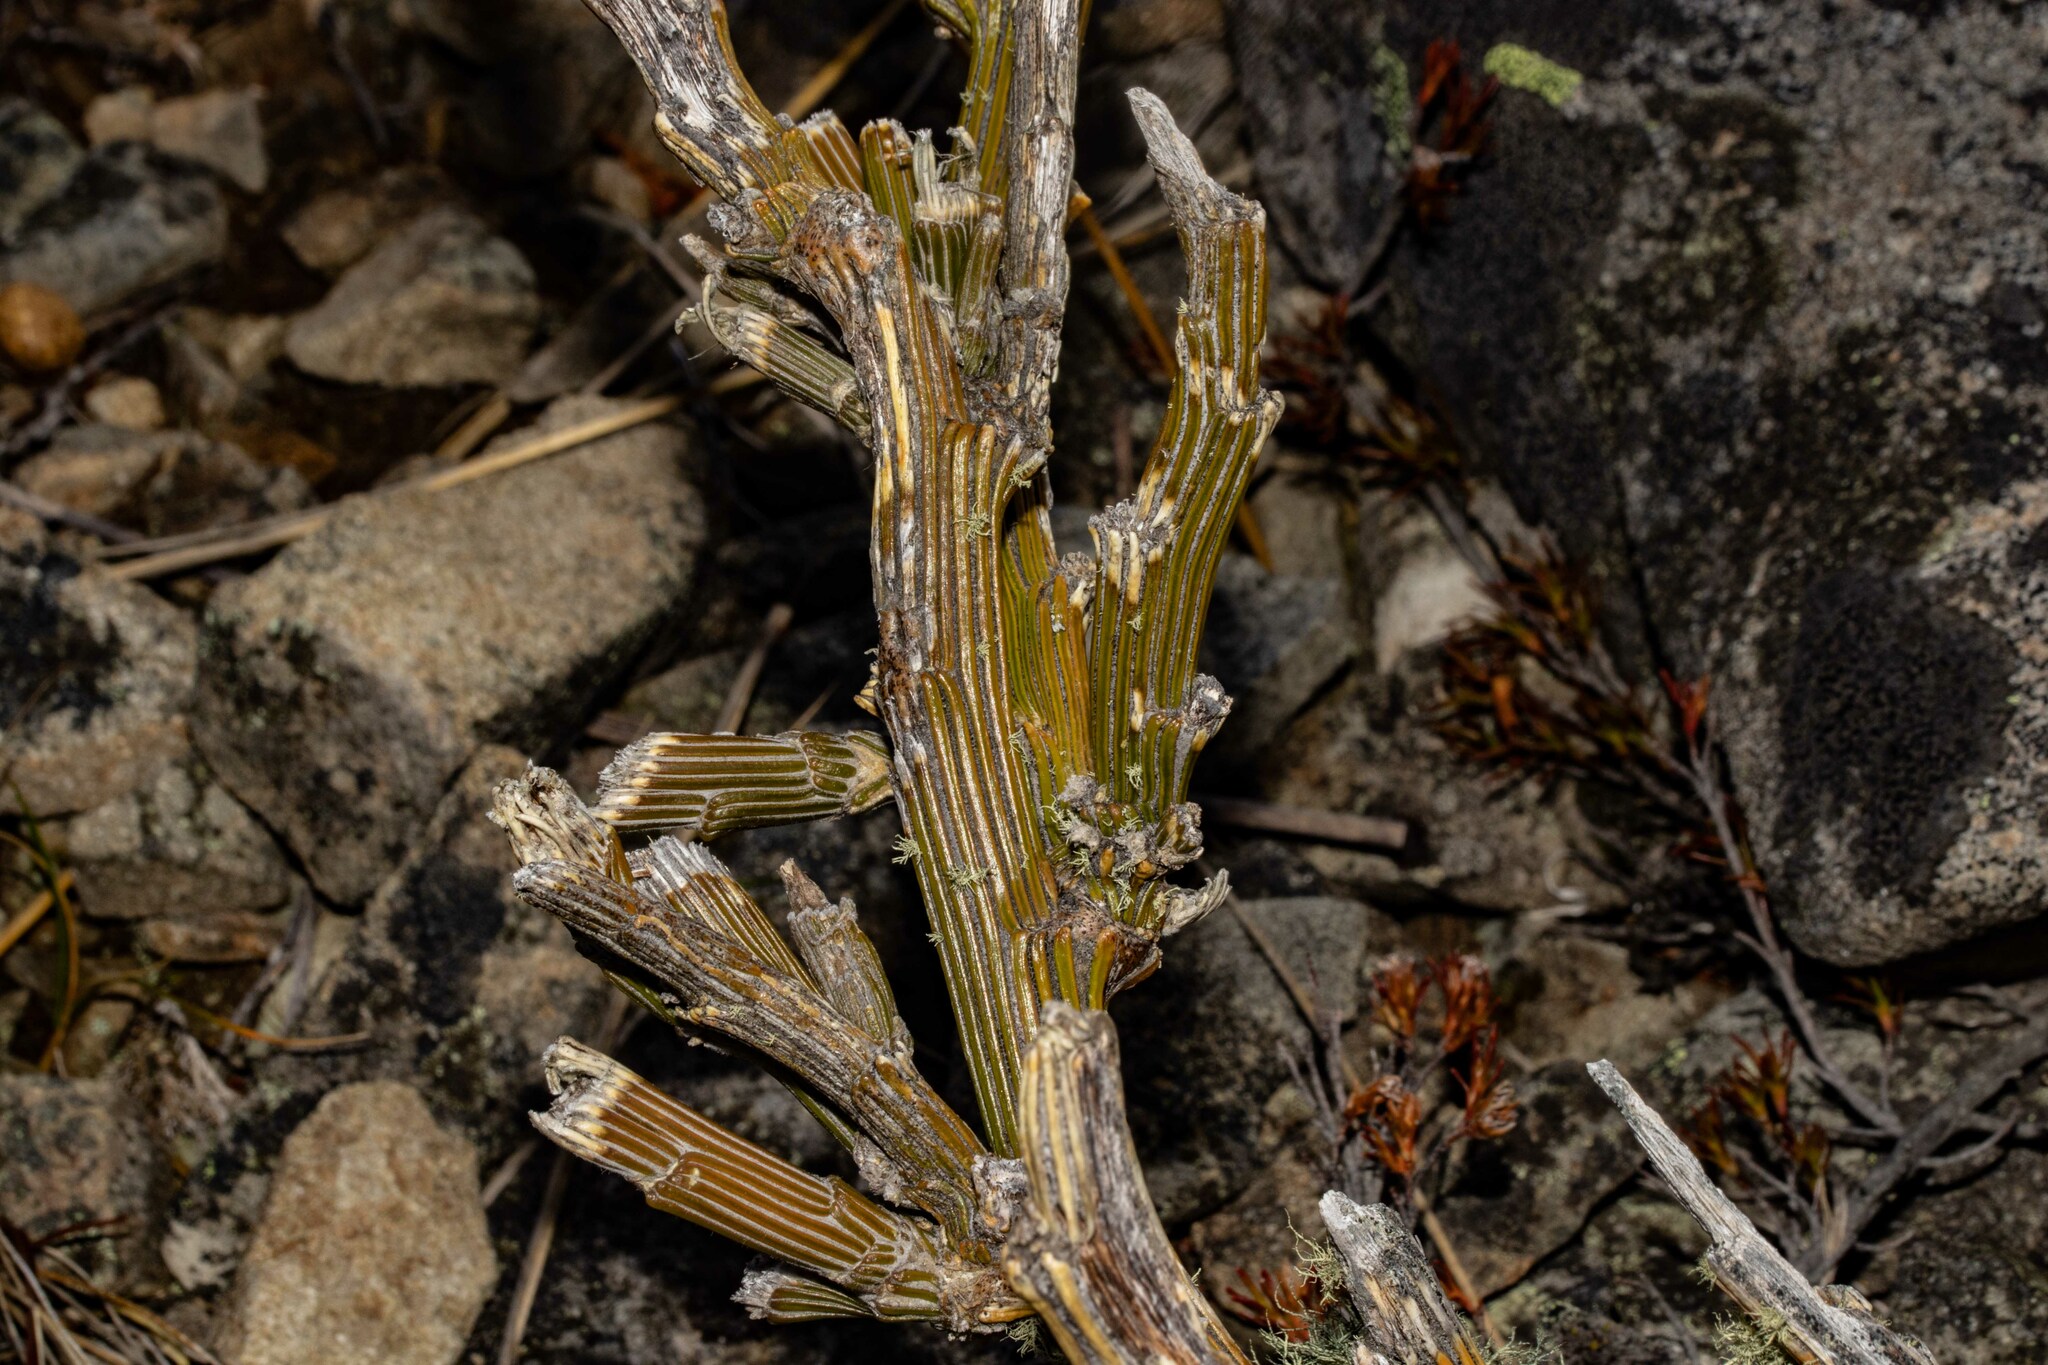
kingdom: Plantae
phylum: Tracheophyta
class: Magnoliopsida
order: Fabales
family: Fabaceae
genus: Carmichaelia
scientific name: Carmichaelia crassicaulis
